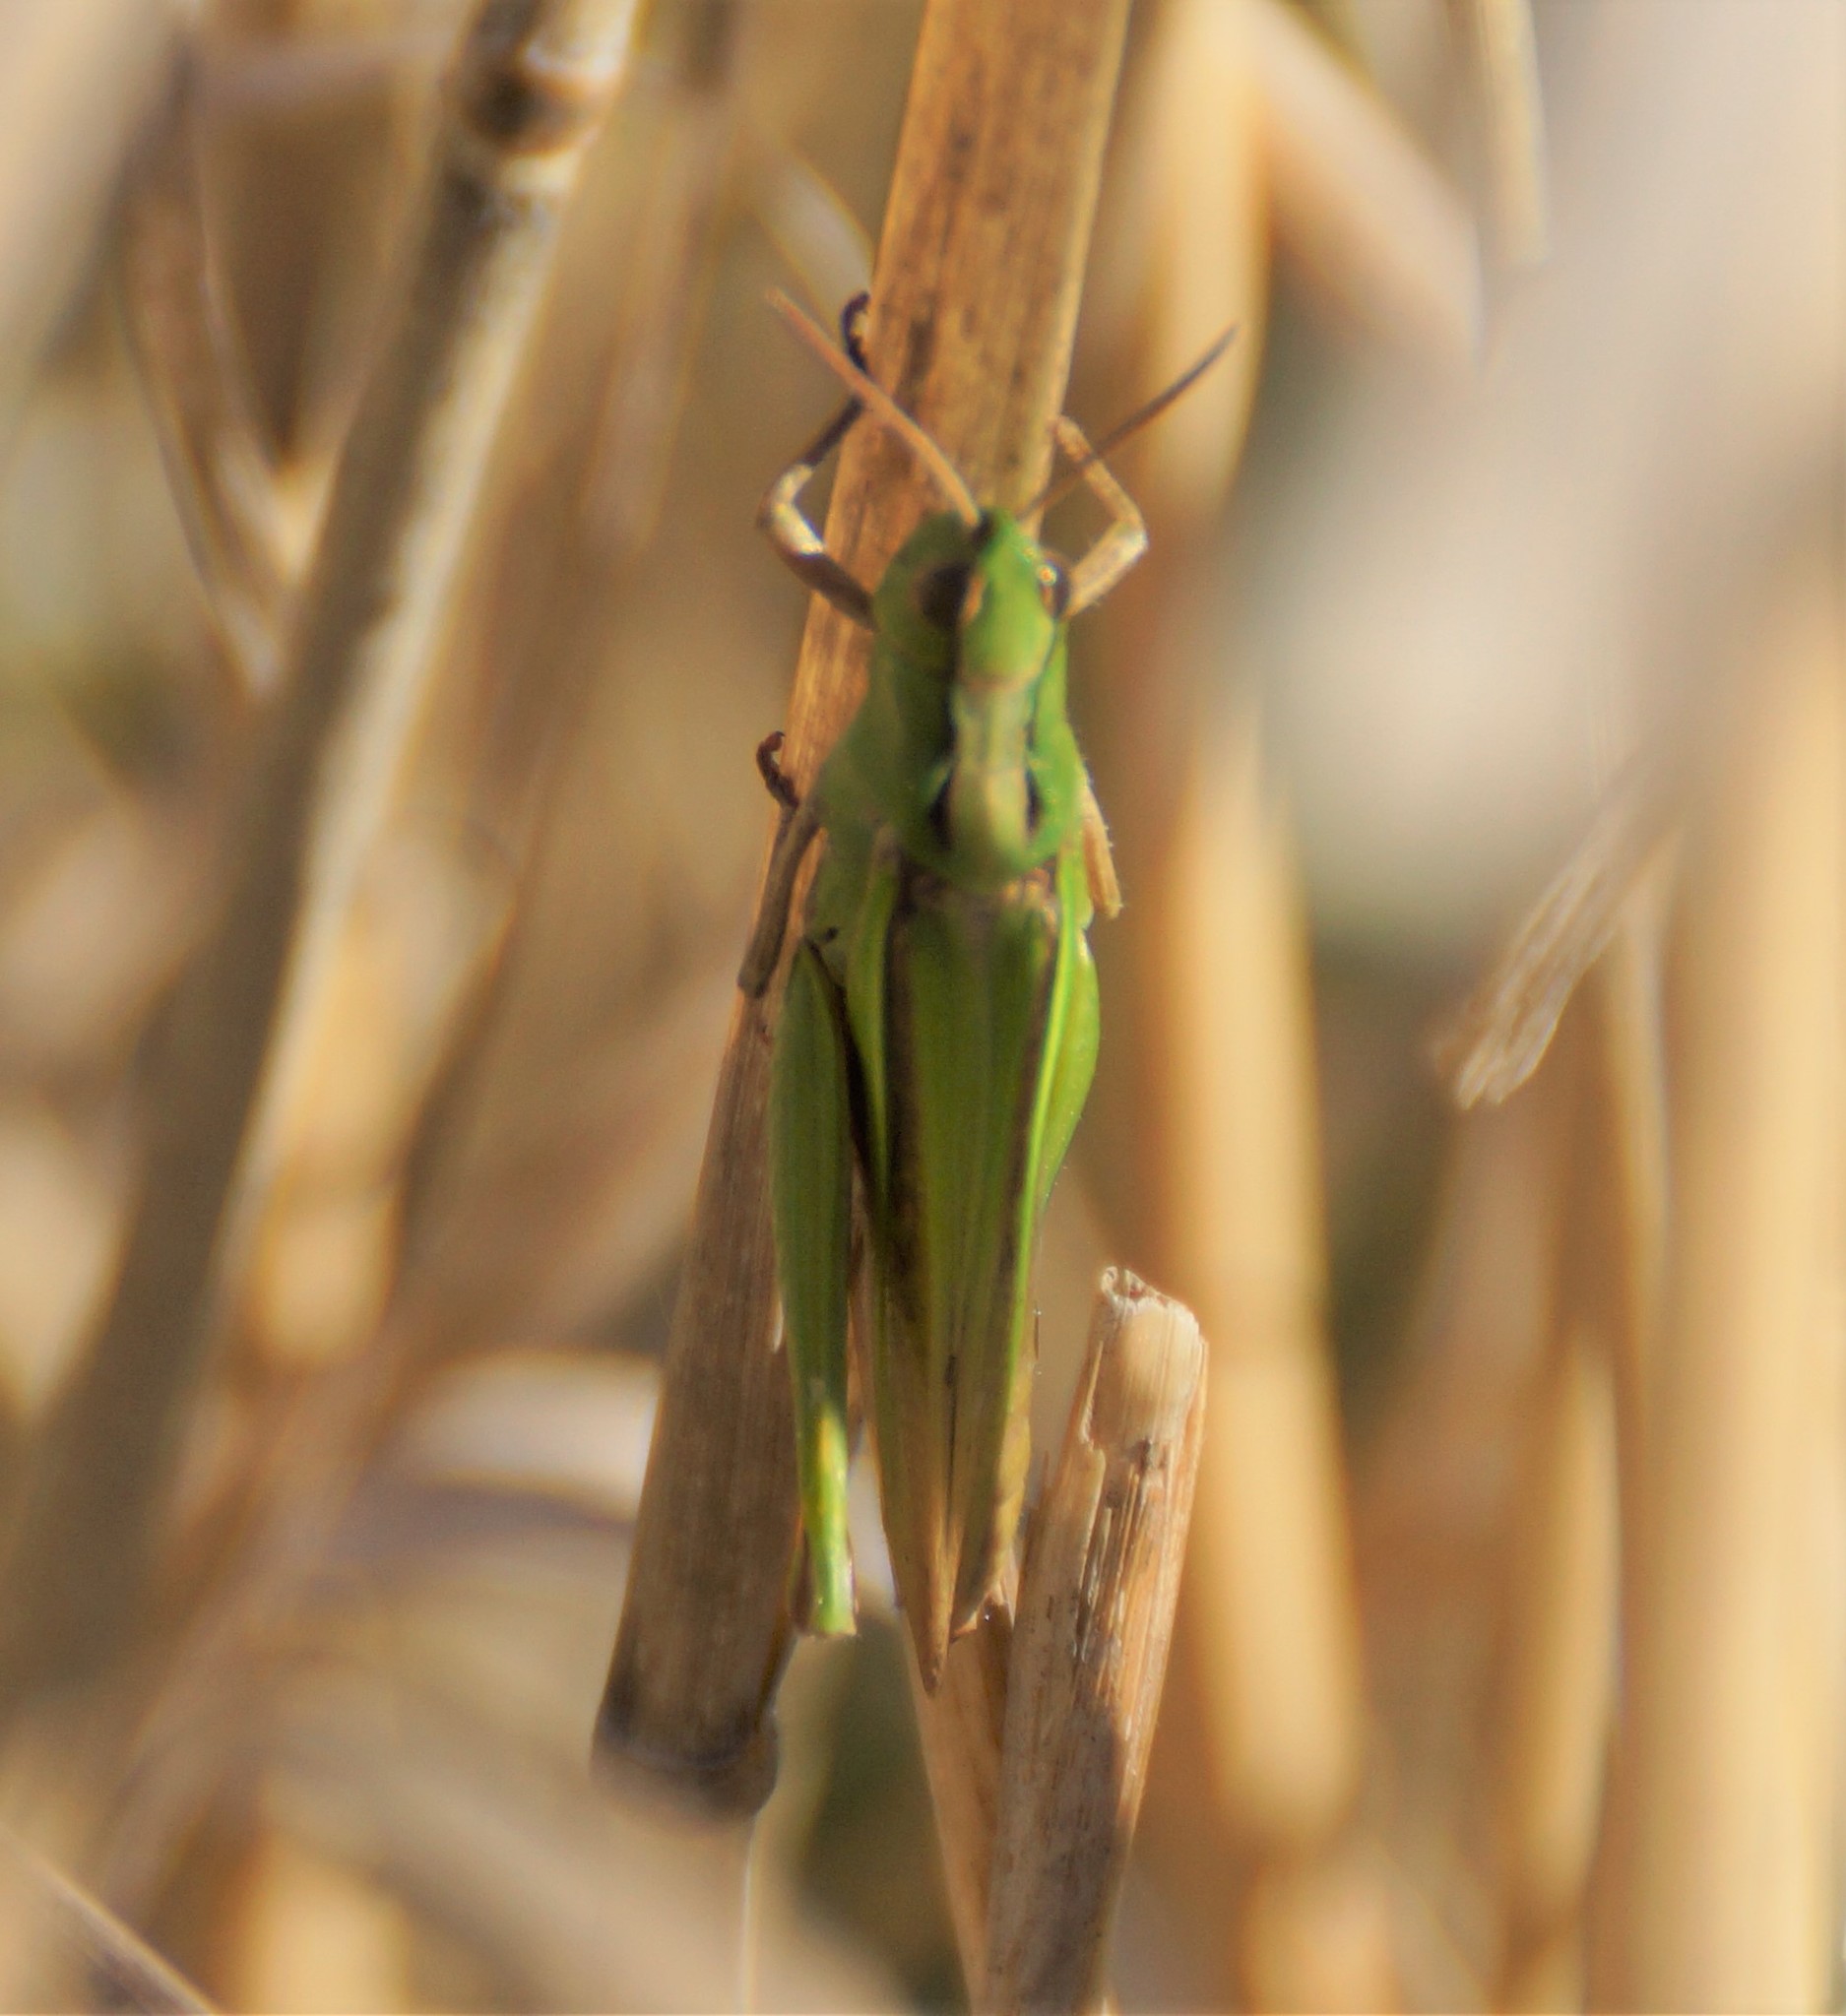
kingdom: Animalia
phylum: Arthropoda
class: Insecta
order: Orthoptera
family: Acrididae
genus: Schizobothrus
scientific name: Schizobothrus flavovittatus
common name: Disappearing grasshopper
